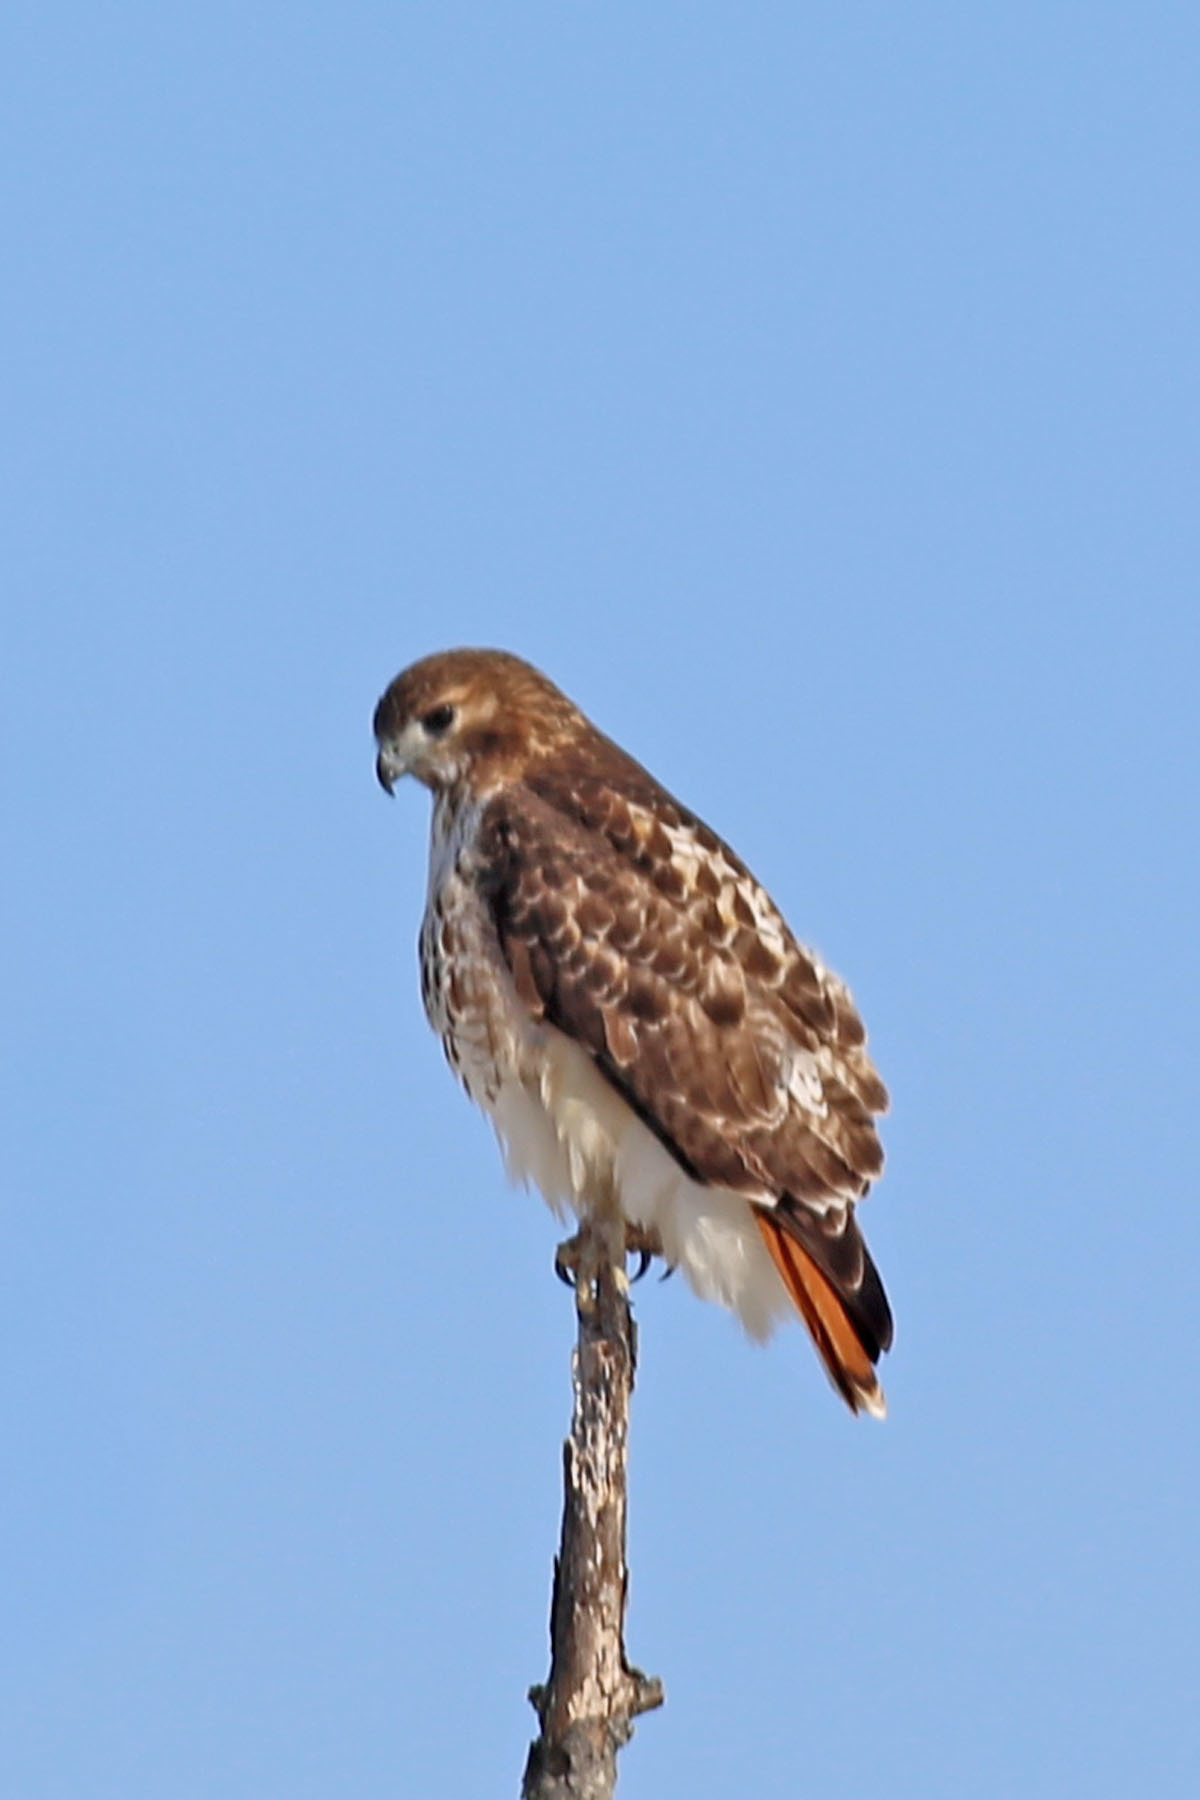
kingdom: Animalia
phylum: Chordata
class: Aves
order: Accipitriformes
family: Accipitridae
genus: Buteo
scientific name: Buteo jamaicensis
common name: Red-tailed hawk
